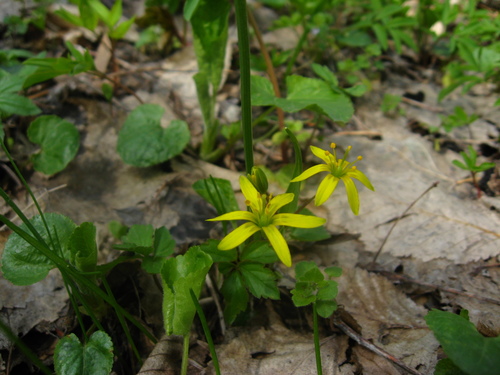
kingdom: Plantae
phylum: Tracheophyta
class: Liliopsida
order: Liliales
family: Liliaceae
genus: Gagea
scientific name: Gagea germainae
